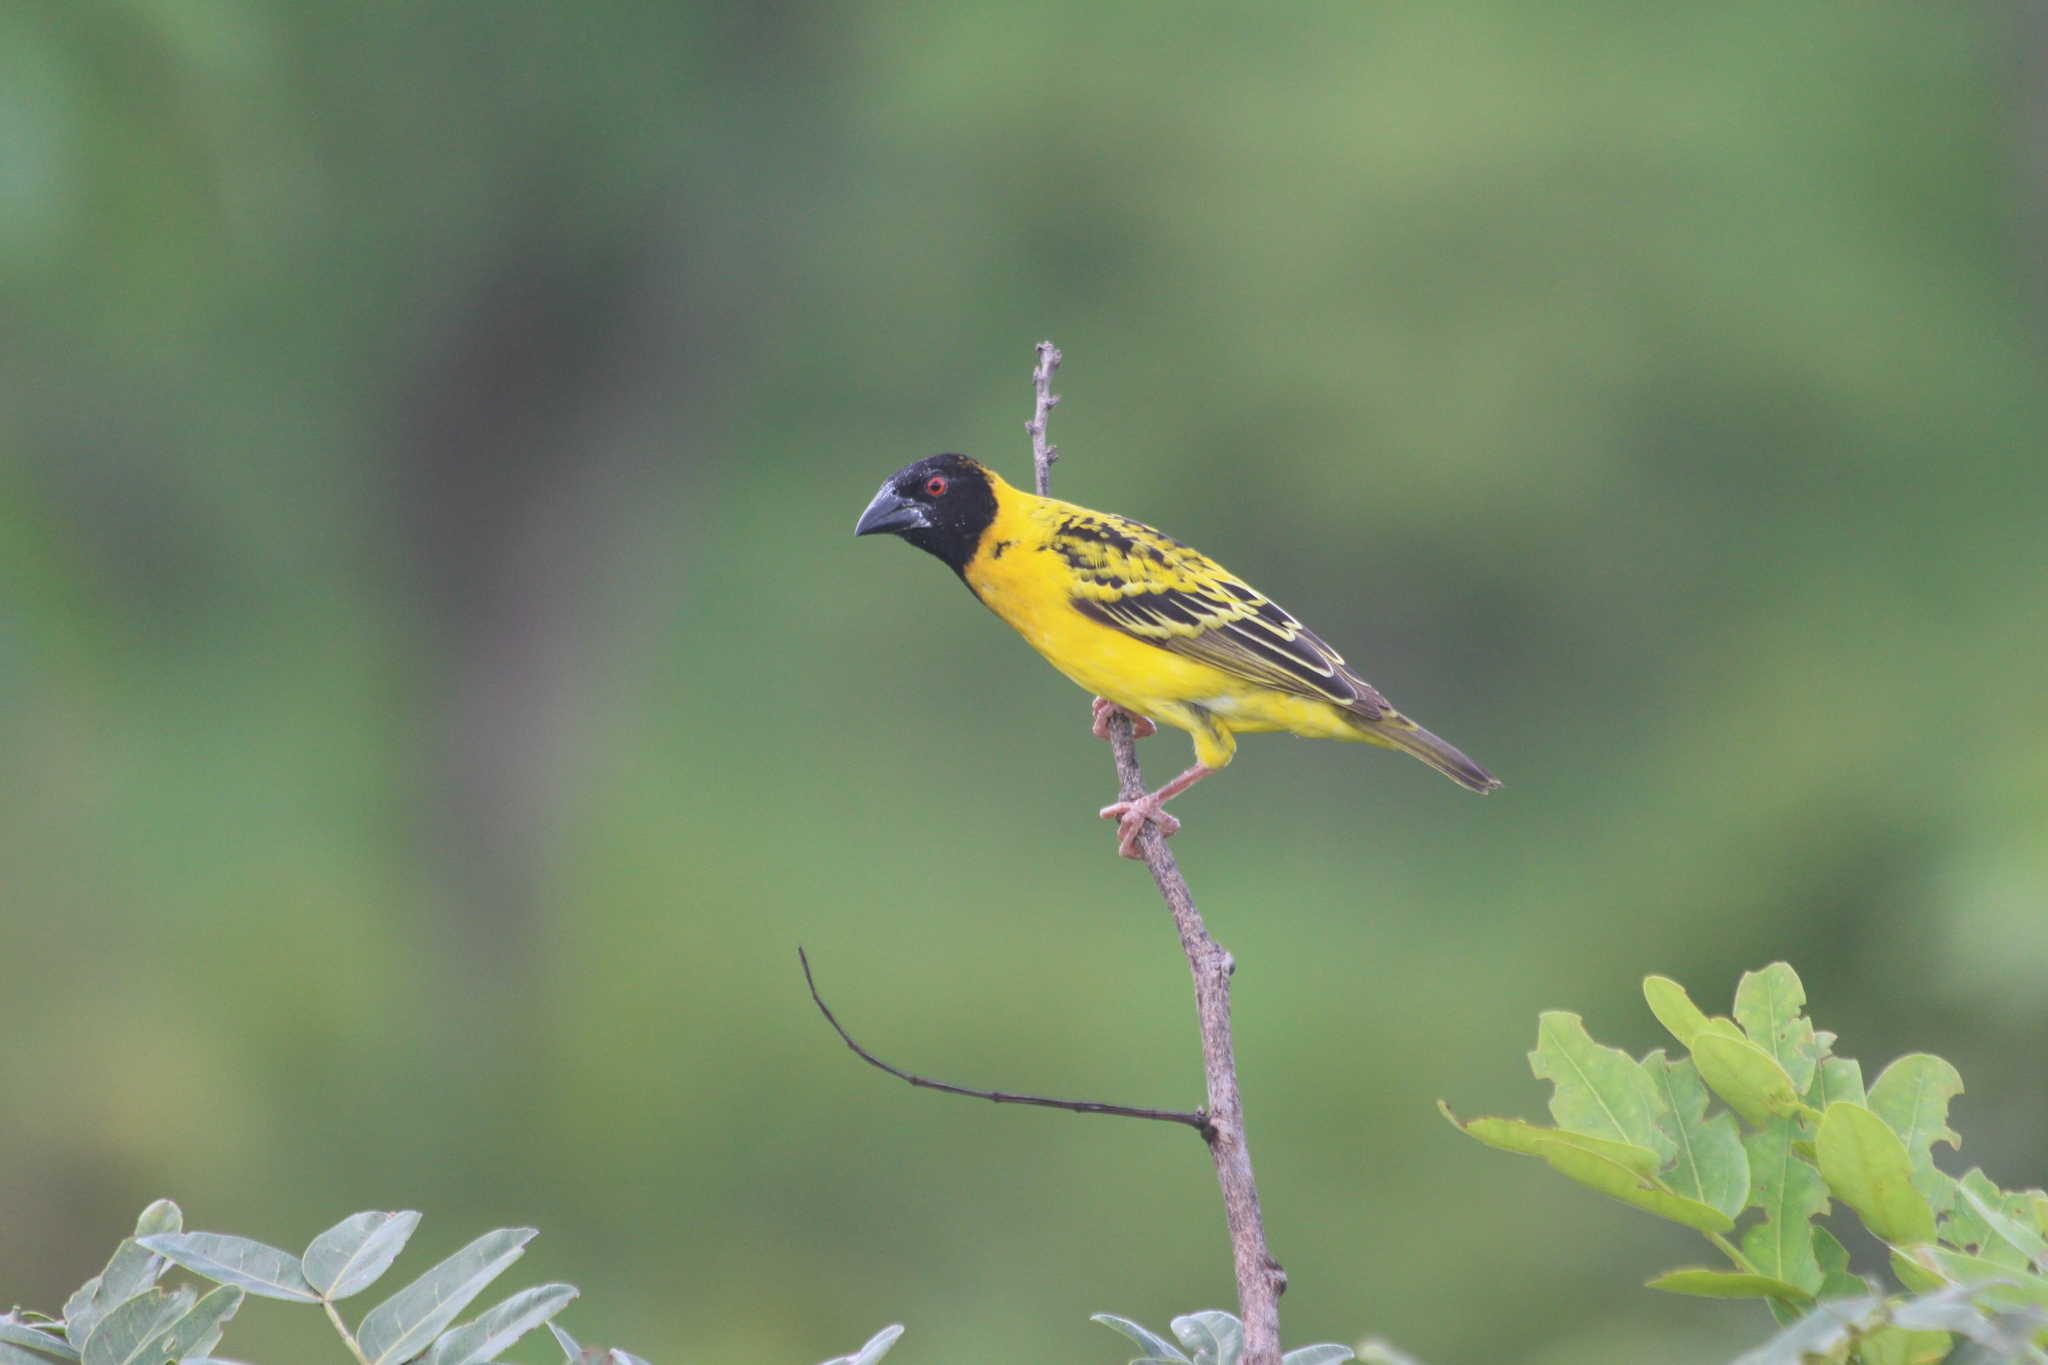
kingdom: Animalia
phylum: Chordata
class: Aves
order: Passeriformes
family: Ploceidae
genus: Ploceus
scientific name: Ploceus cucullatus
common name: Village weaver
